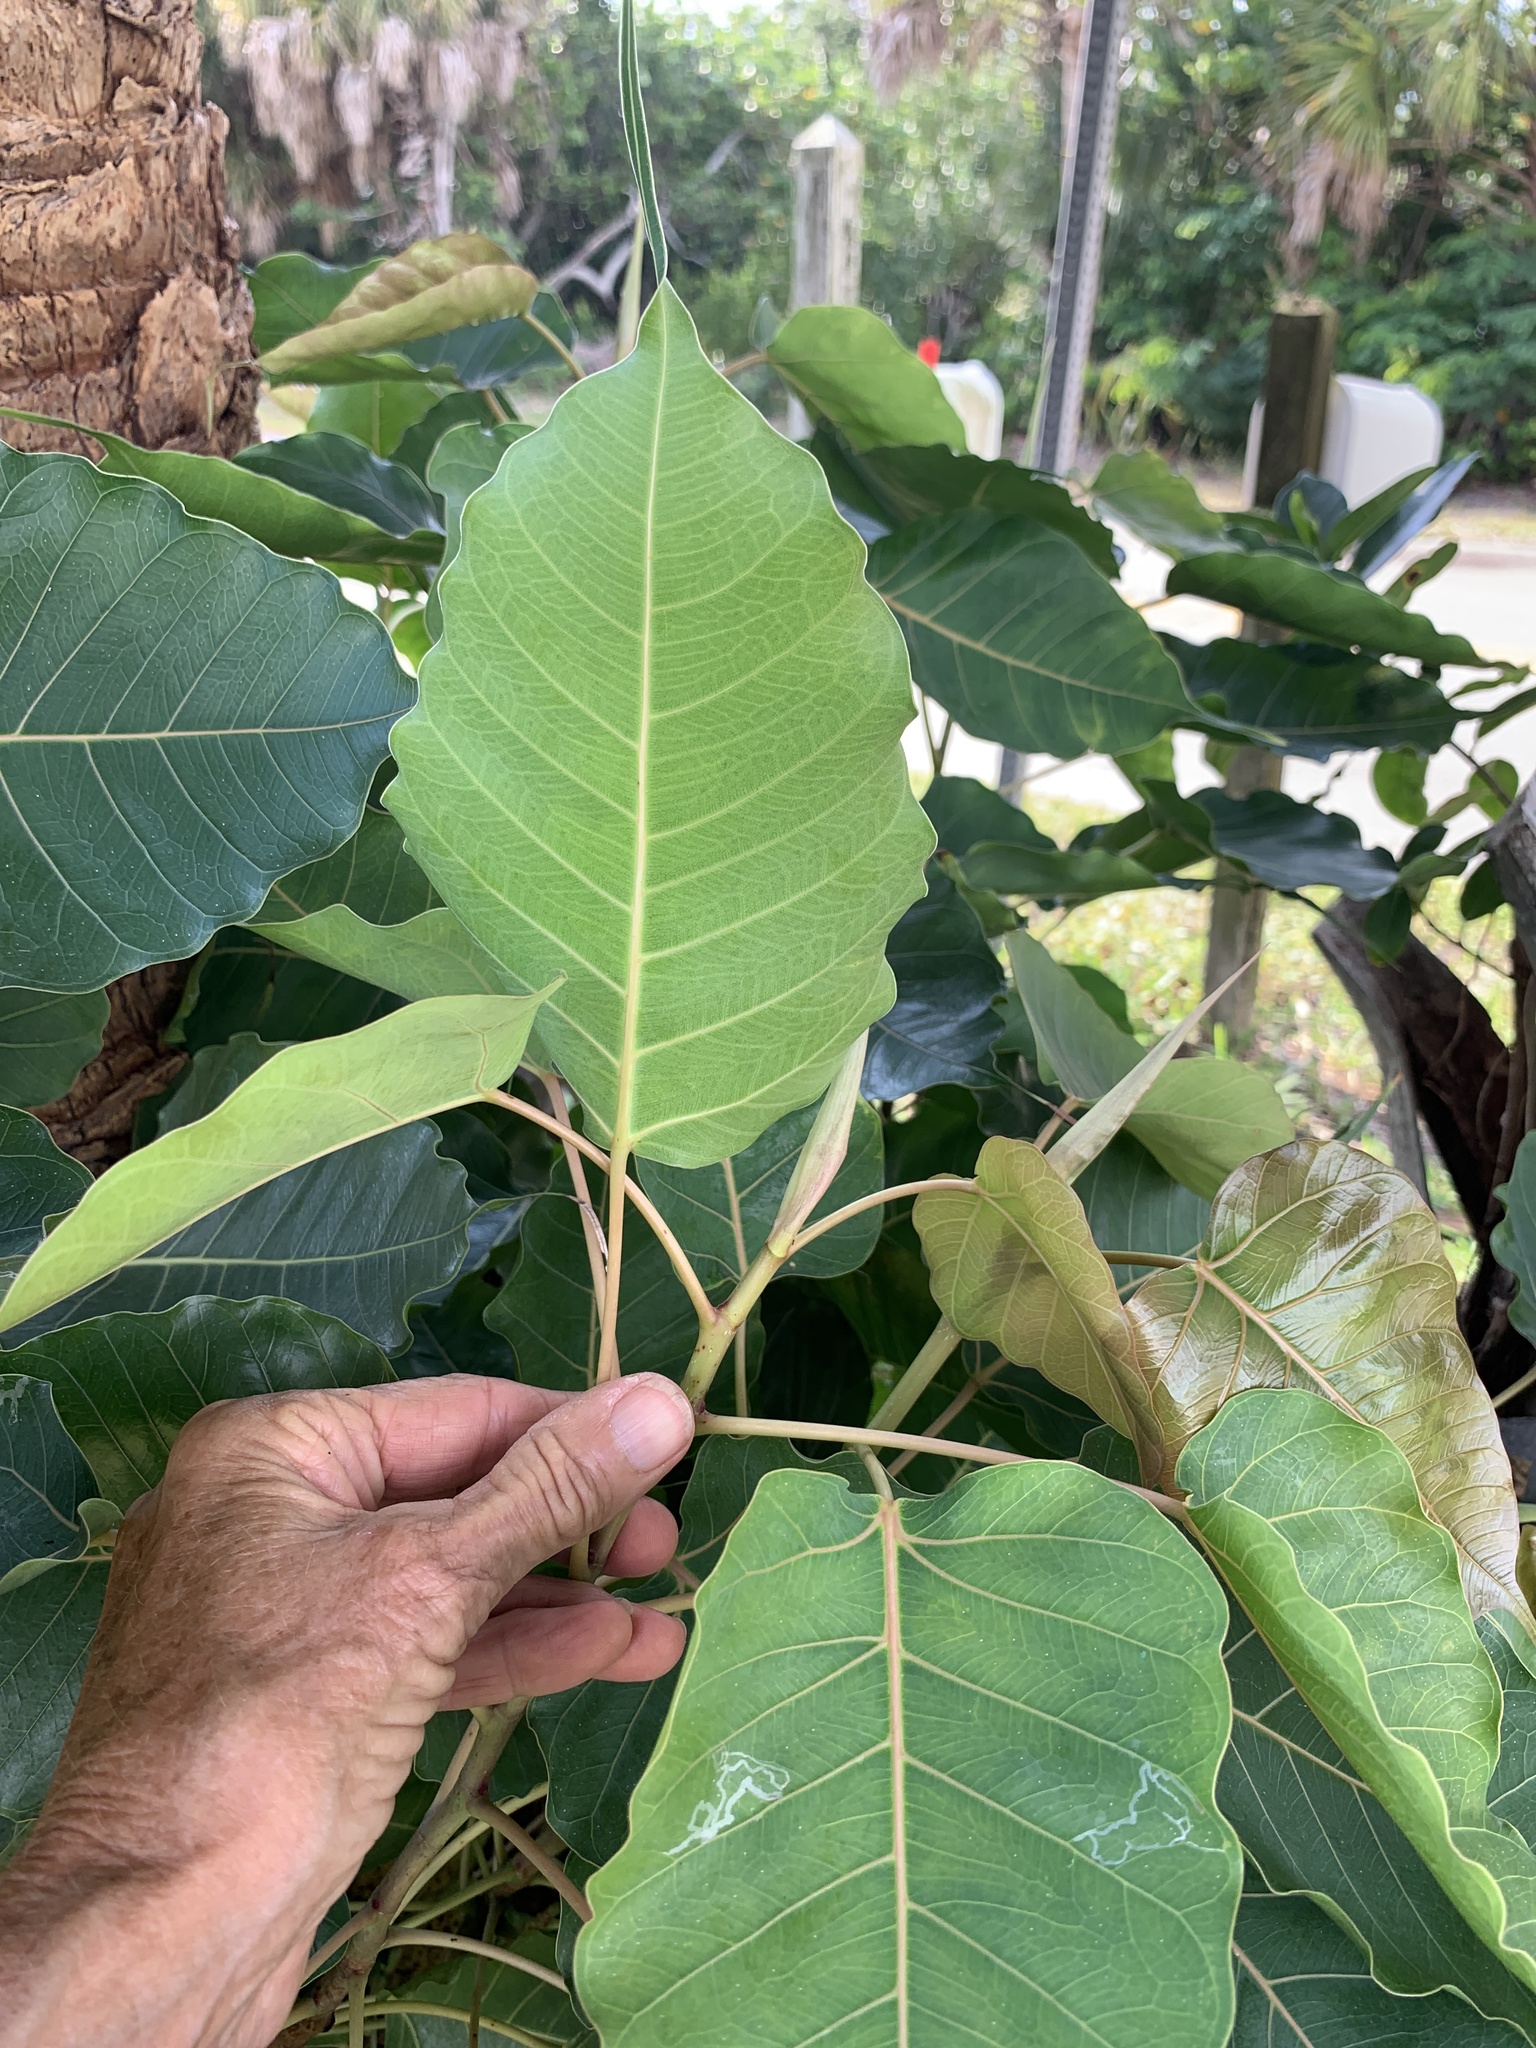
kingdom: Plantae
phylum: Tracheophyta
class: Magnoliopsida
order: Rosales
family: Moraceae
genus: Ficus
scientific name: Ficus religiosa
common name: Bodhi tree
